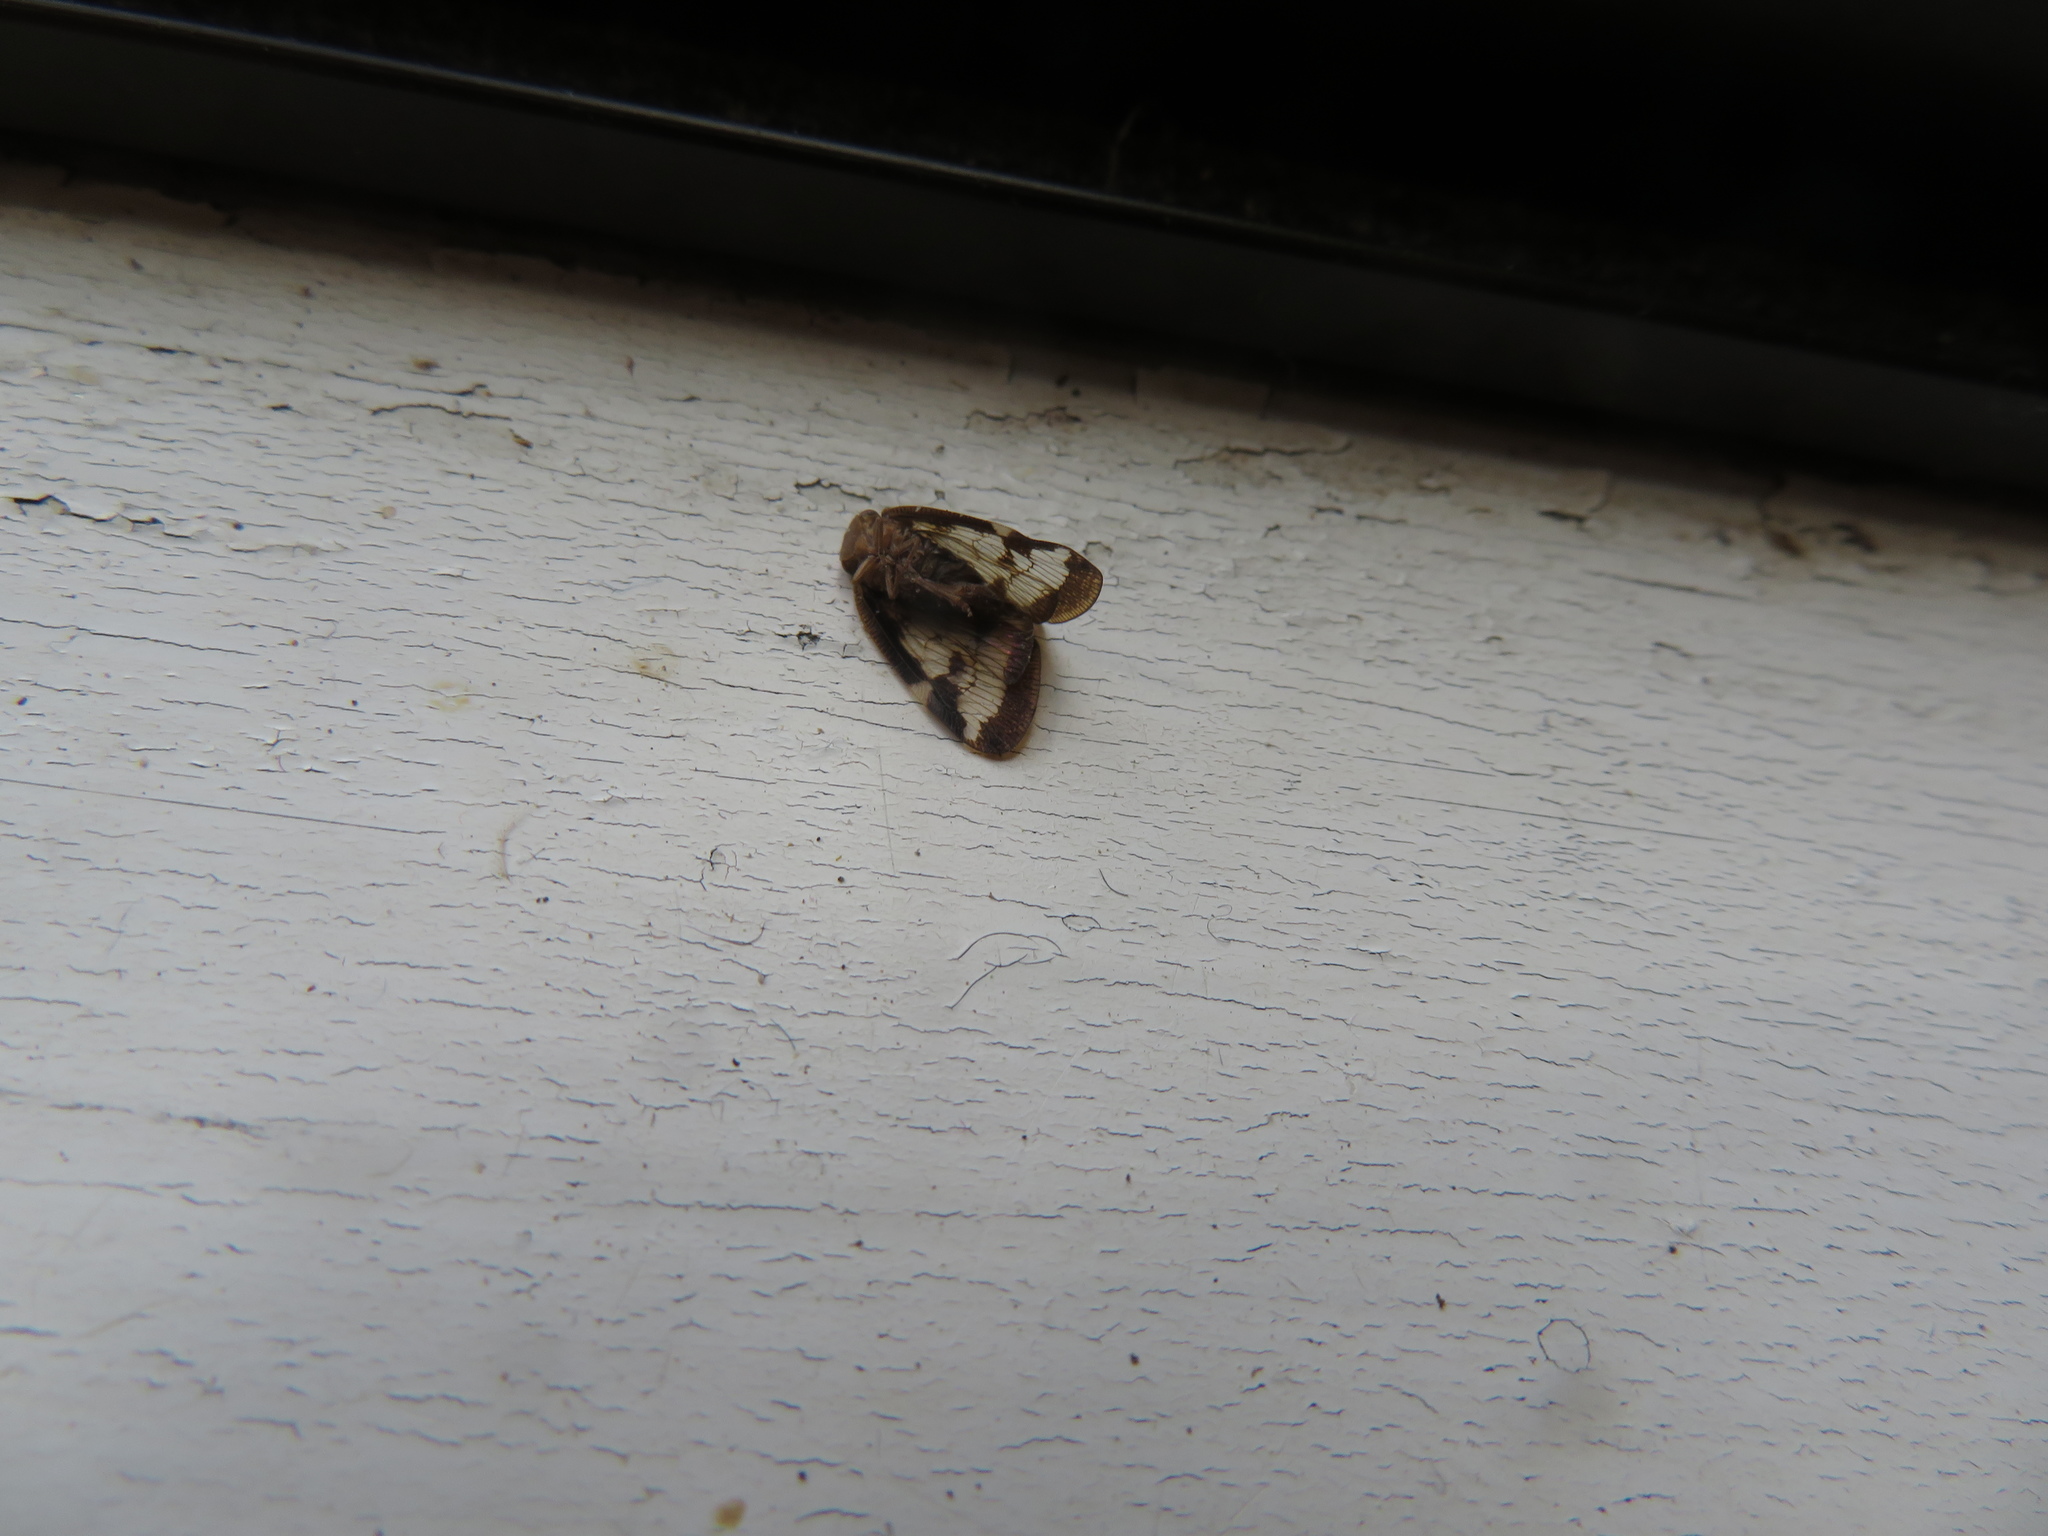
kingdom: Animalia
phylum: Arthropoda
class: Insecta
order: Hemiptera
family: Ricaniidae
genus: Scolypopa
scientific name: Scolypopa australis
